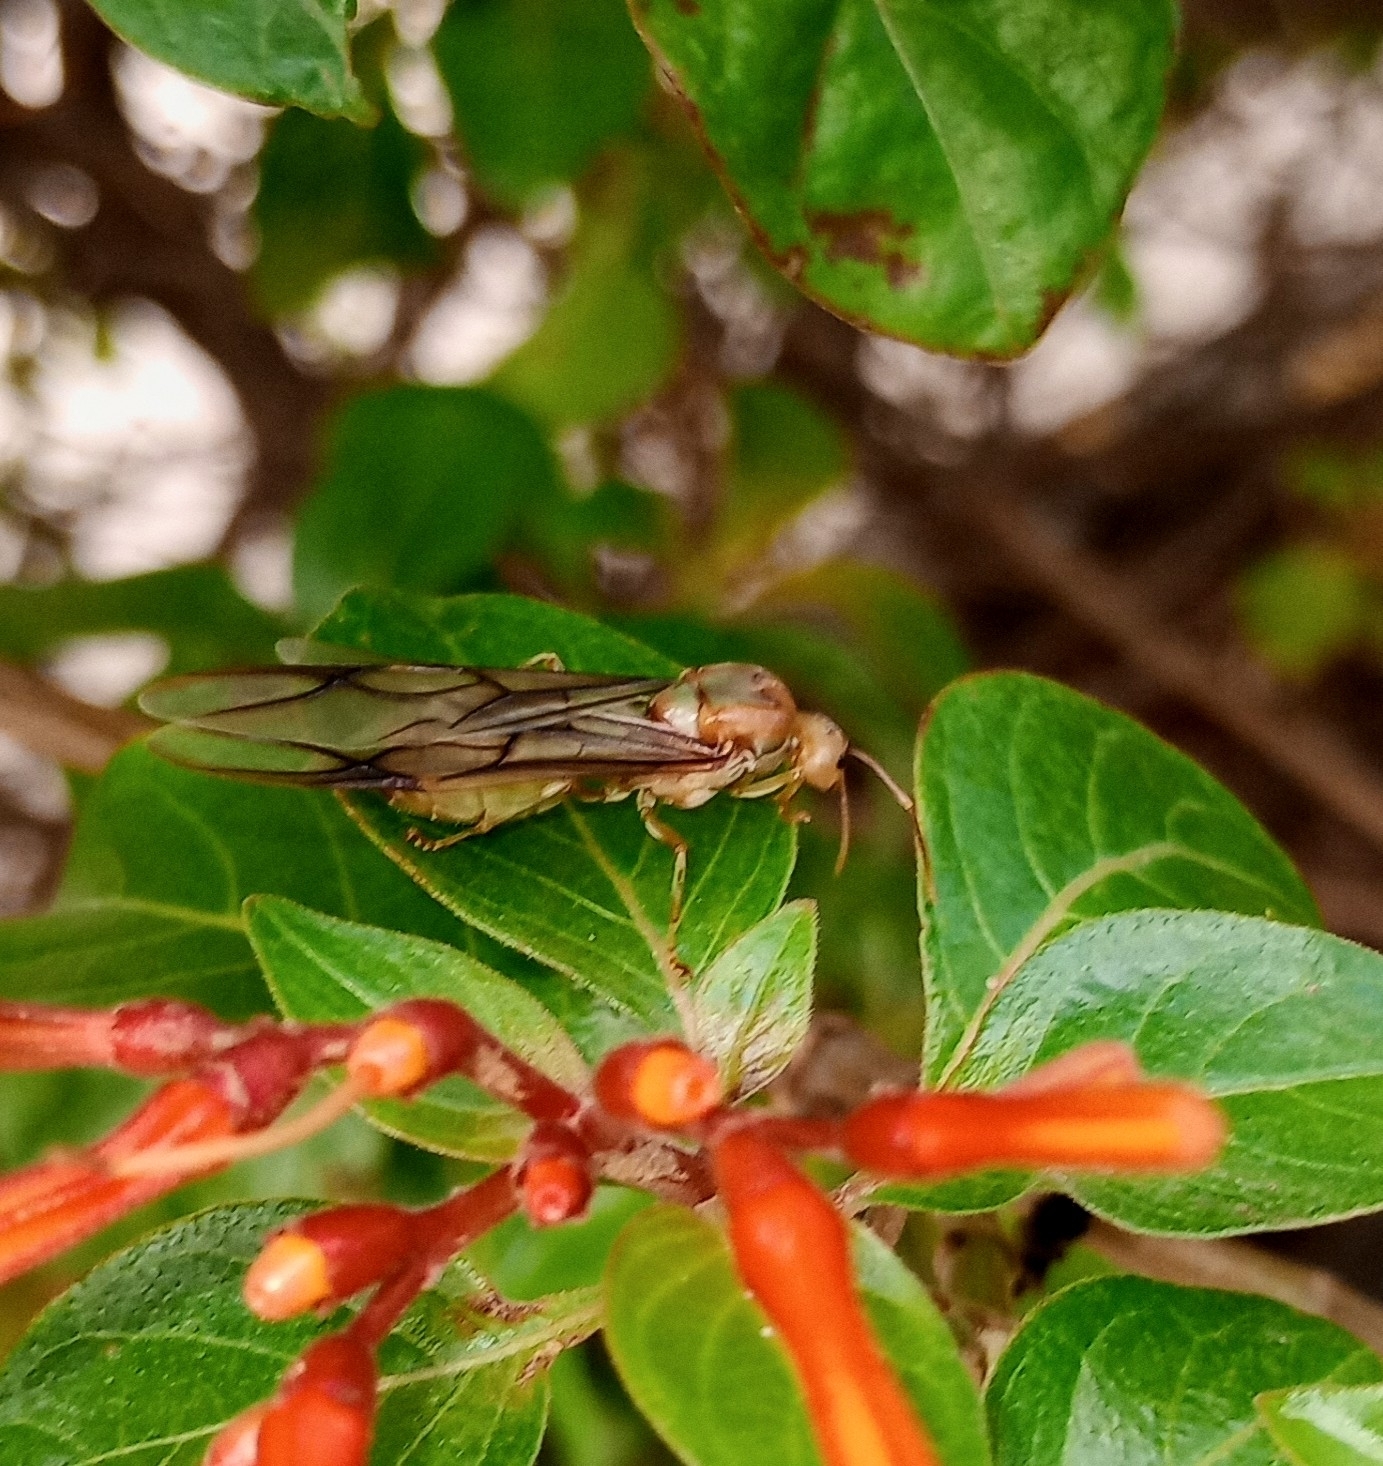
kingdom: Animalia
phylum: Arthropoda
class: Insecta
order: Hymenoptera
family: Formicidae
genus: Oecophylla
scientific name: Oecophylla smaragdina
